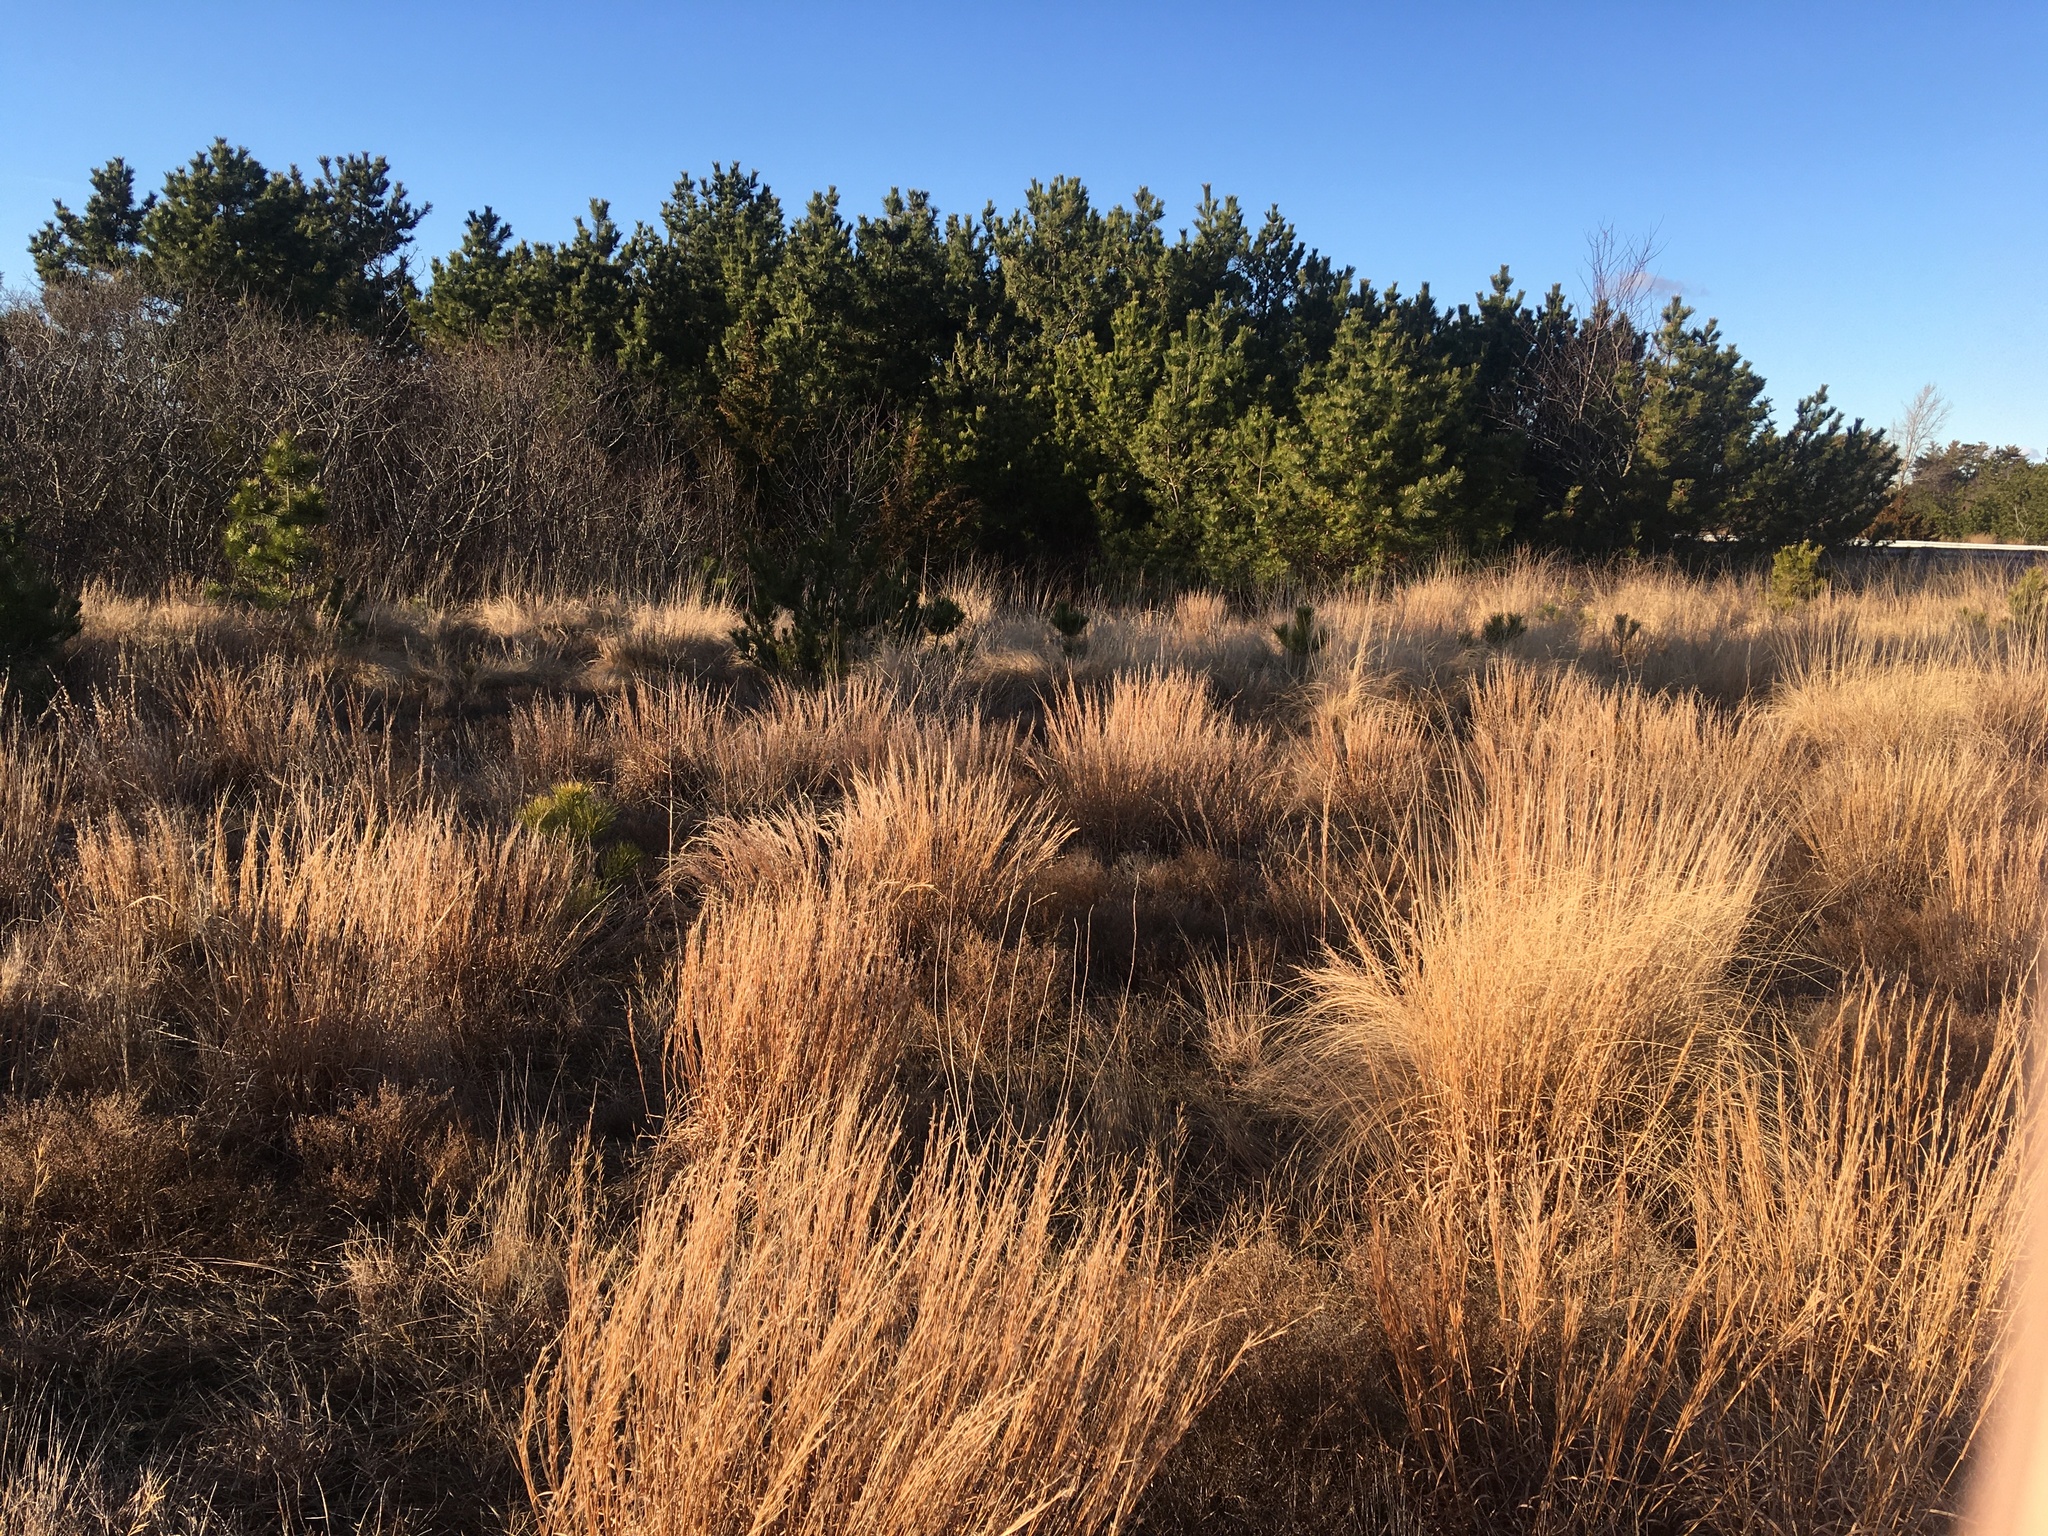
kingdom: Plantae
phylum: Tracheophyta
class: Liliopsida
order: Poales
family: Poaceae
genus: Schizachyrium
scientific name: Schizachyrium scoparium
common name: Little bluestem
